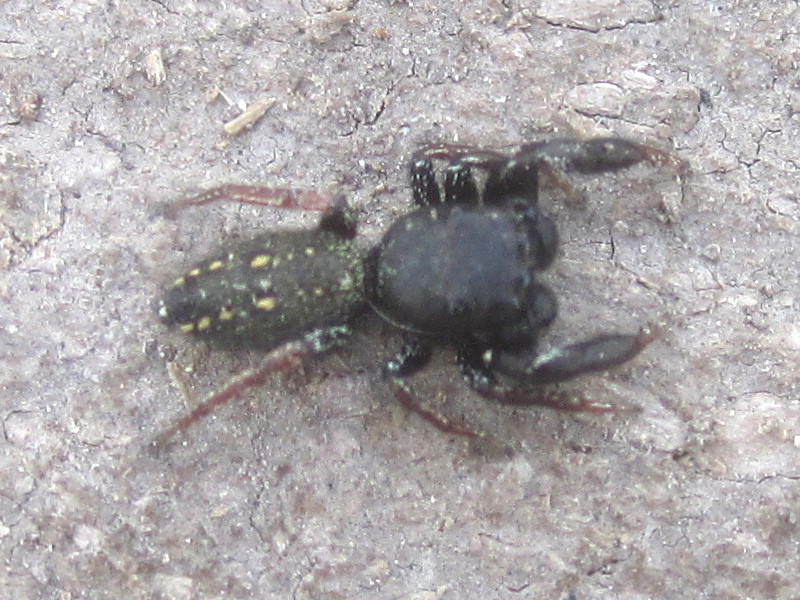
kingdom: Animalia
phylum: Arthropoda
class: Arachnida
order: Araneae
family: Salticidae
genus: Metacyrba
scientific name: Metacyrba taeniola
